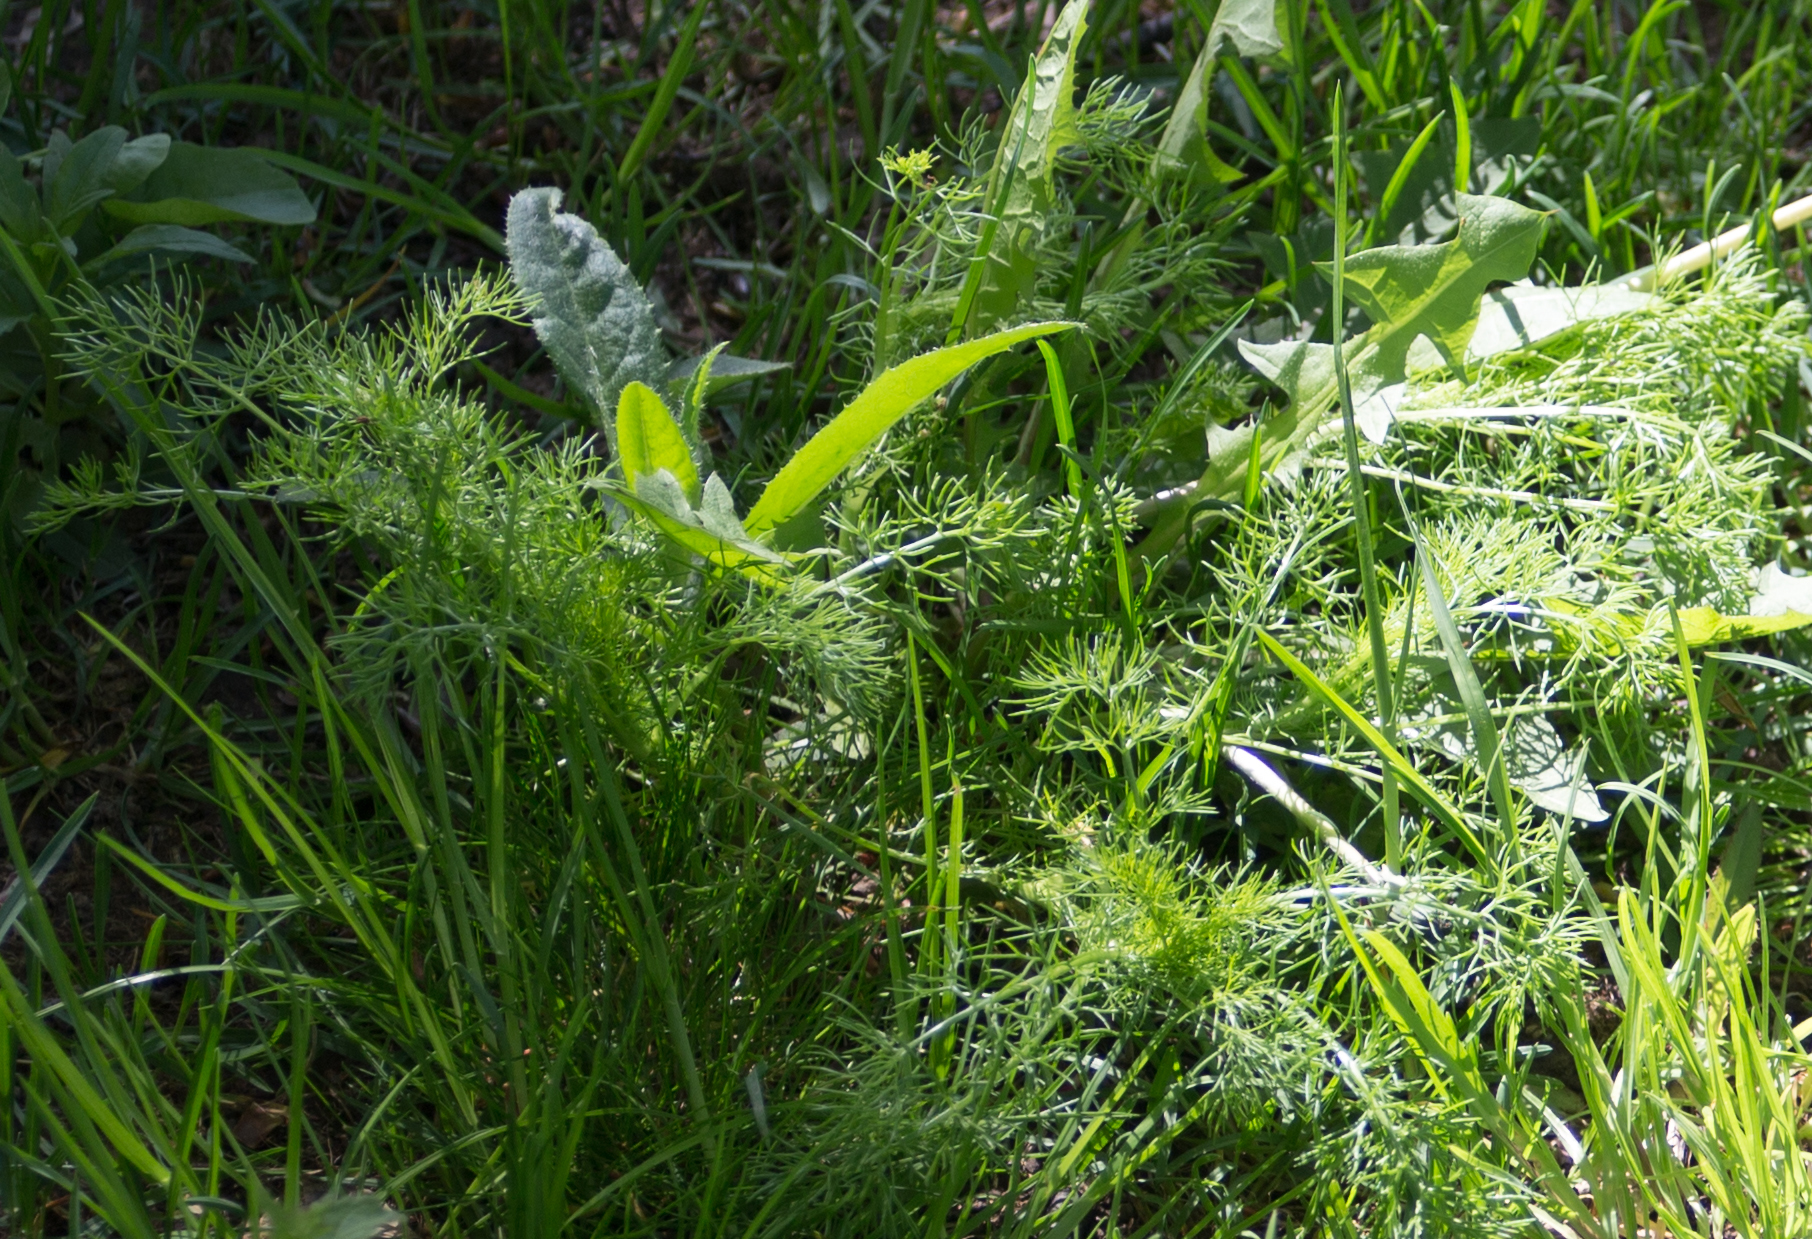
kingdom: Plantae
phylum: Tracheophyta
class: Magnoliopsida
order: Asterales
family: Asteraceae
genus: Tripleurospermum
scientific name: Tripleurospermum inodorum
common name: Scentless mayweed
